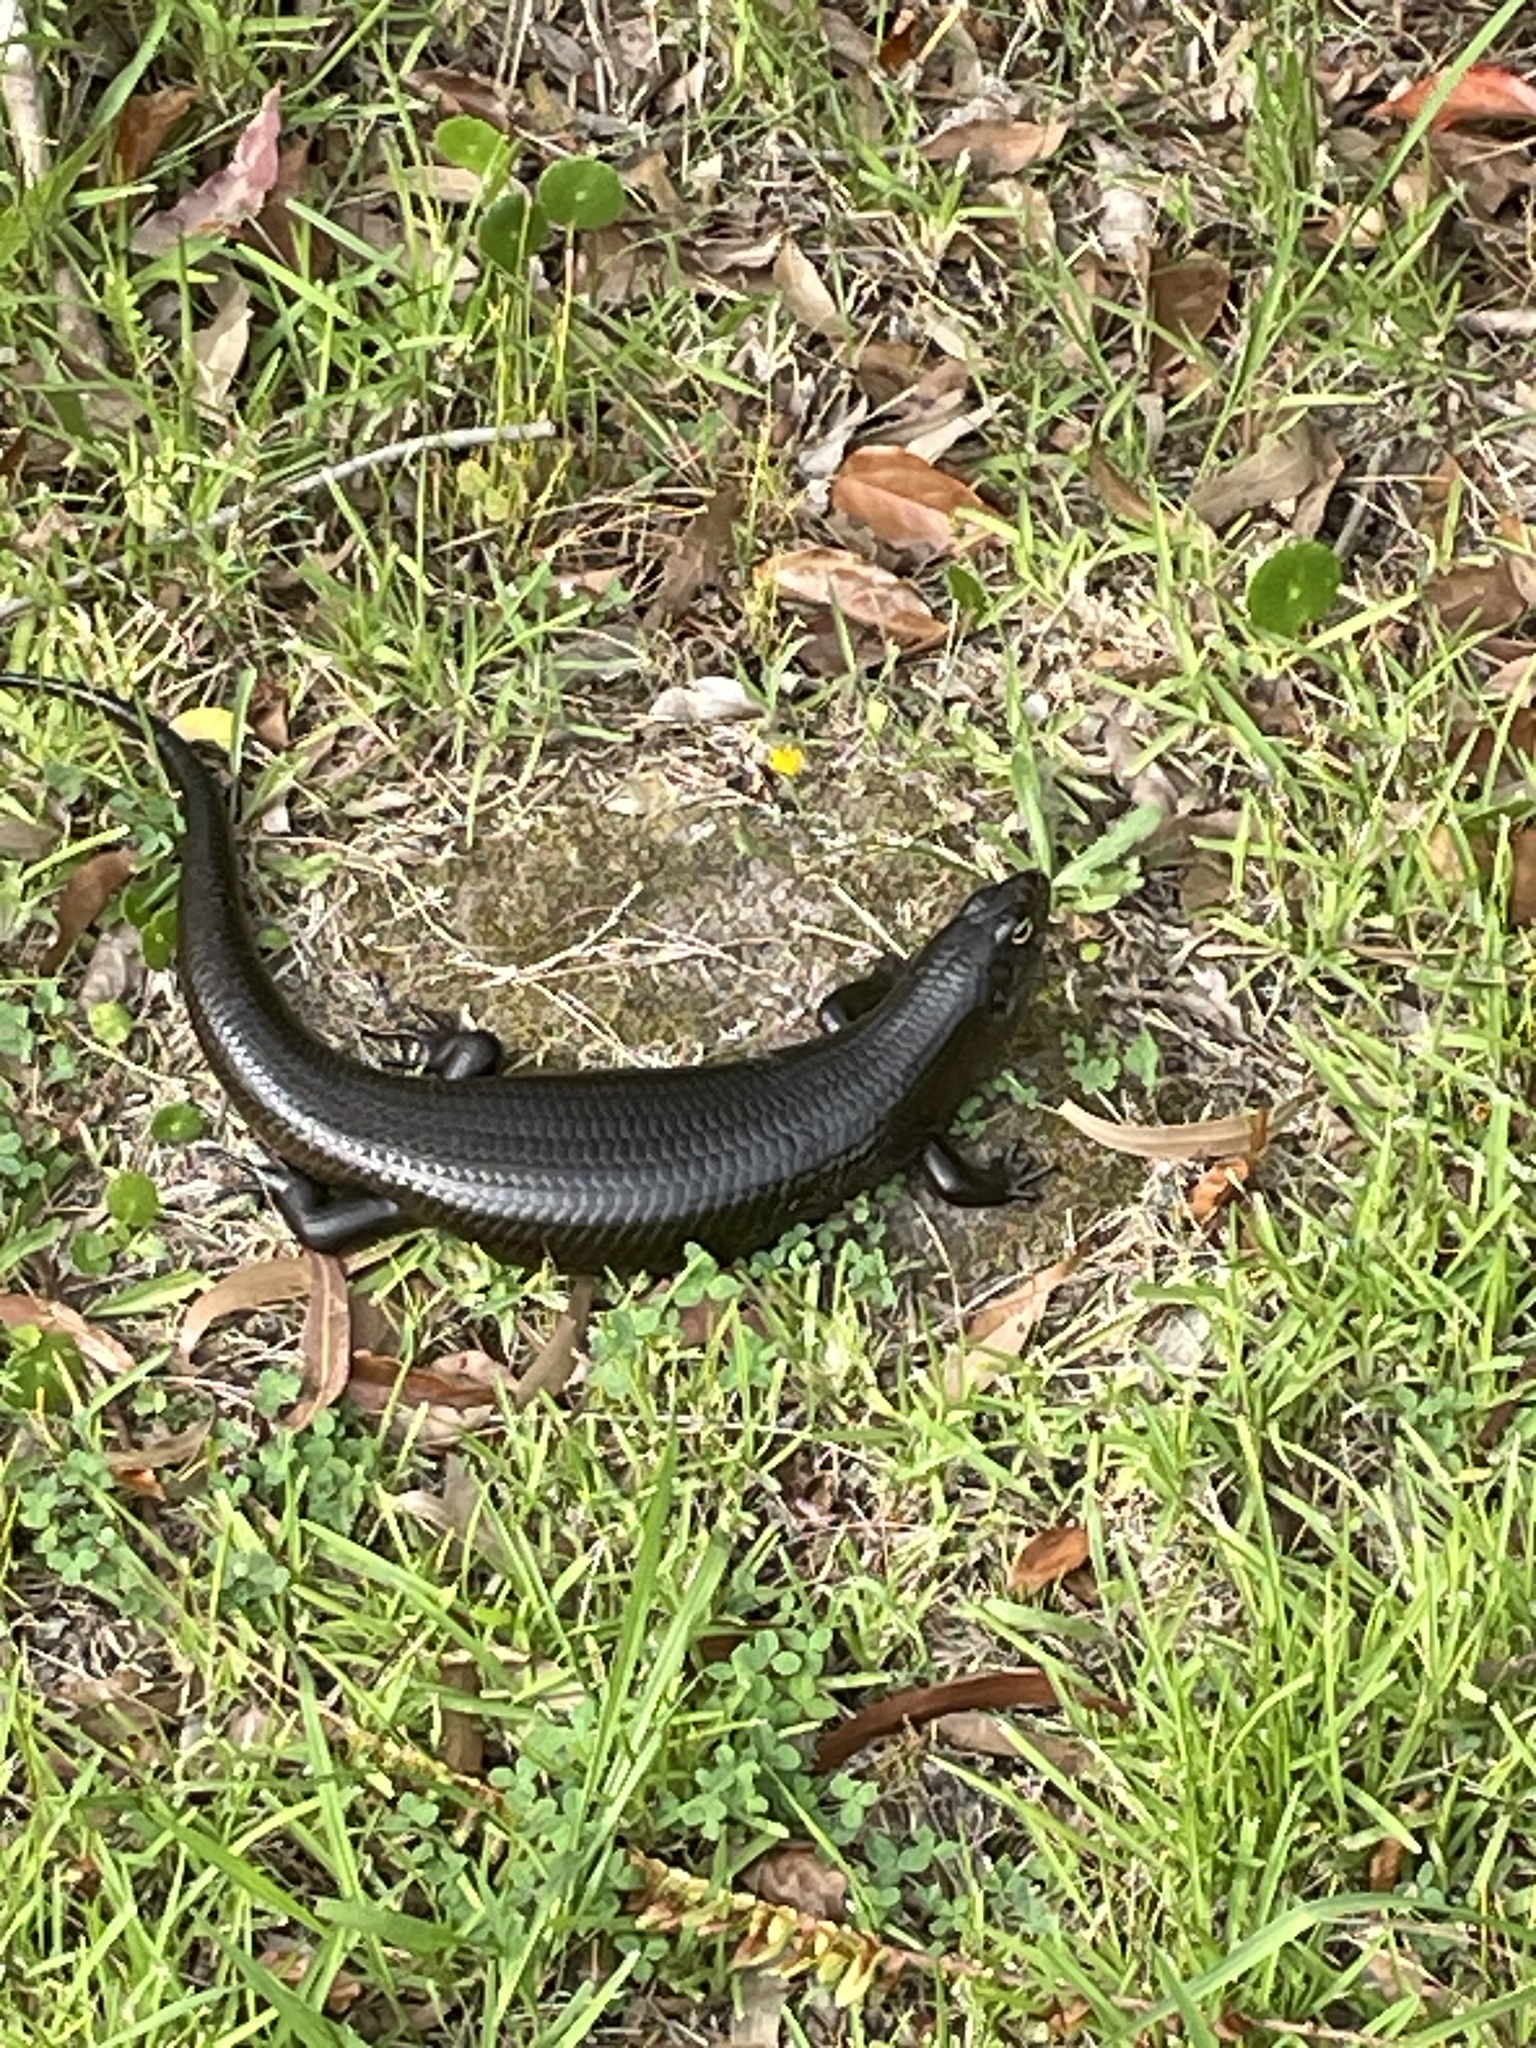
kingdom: Animalia
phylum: Chordata
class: Squamata
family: Scincidae
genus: Bellatorias
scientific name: Bellatorias major
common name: Land mullet
